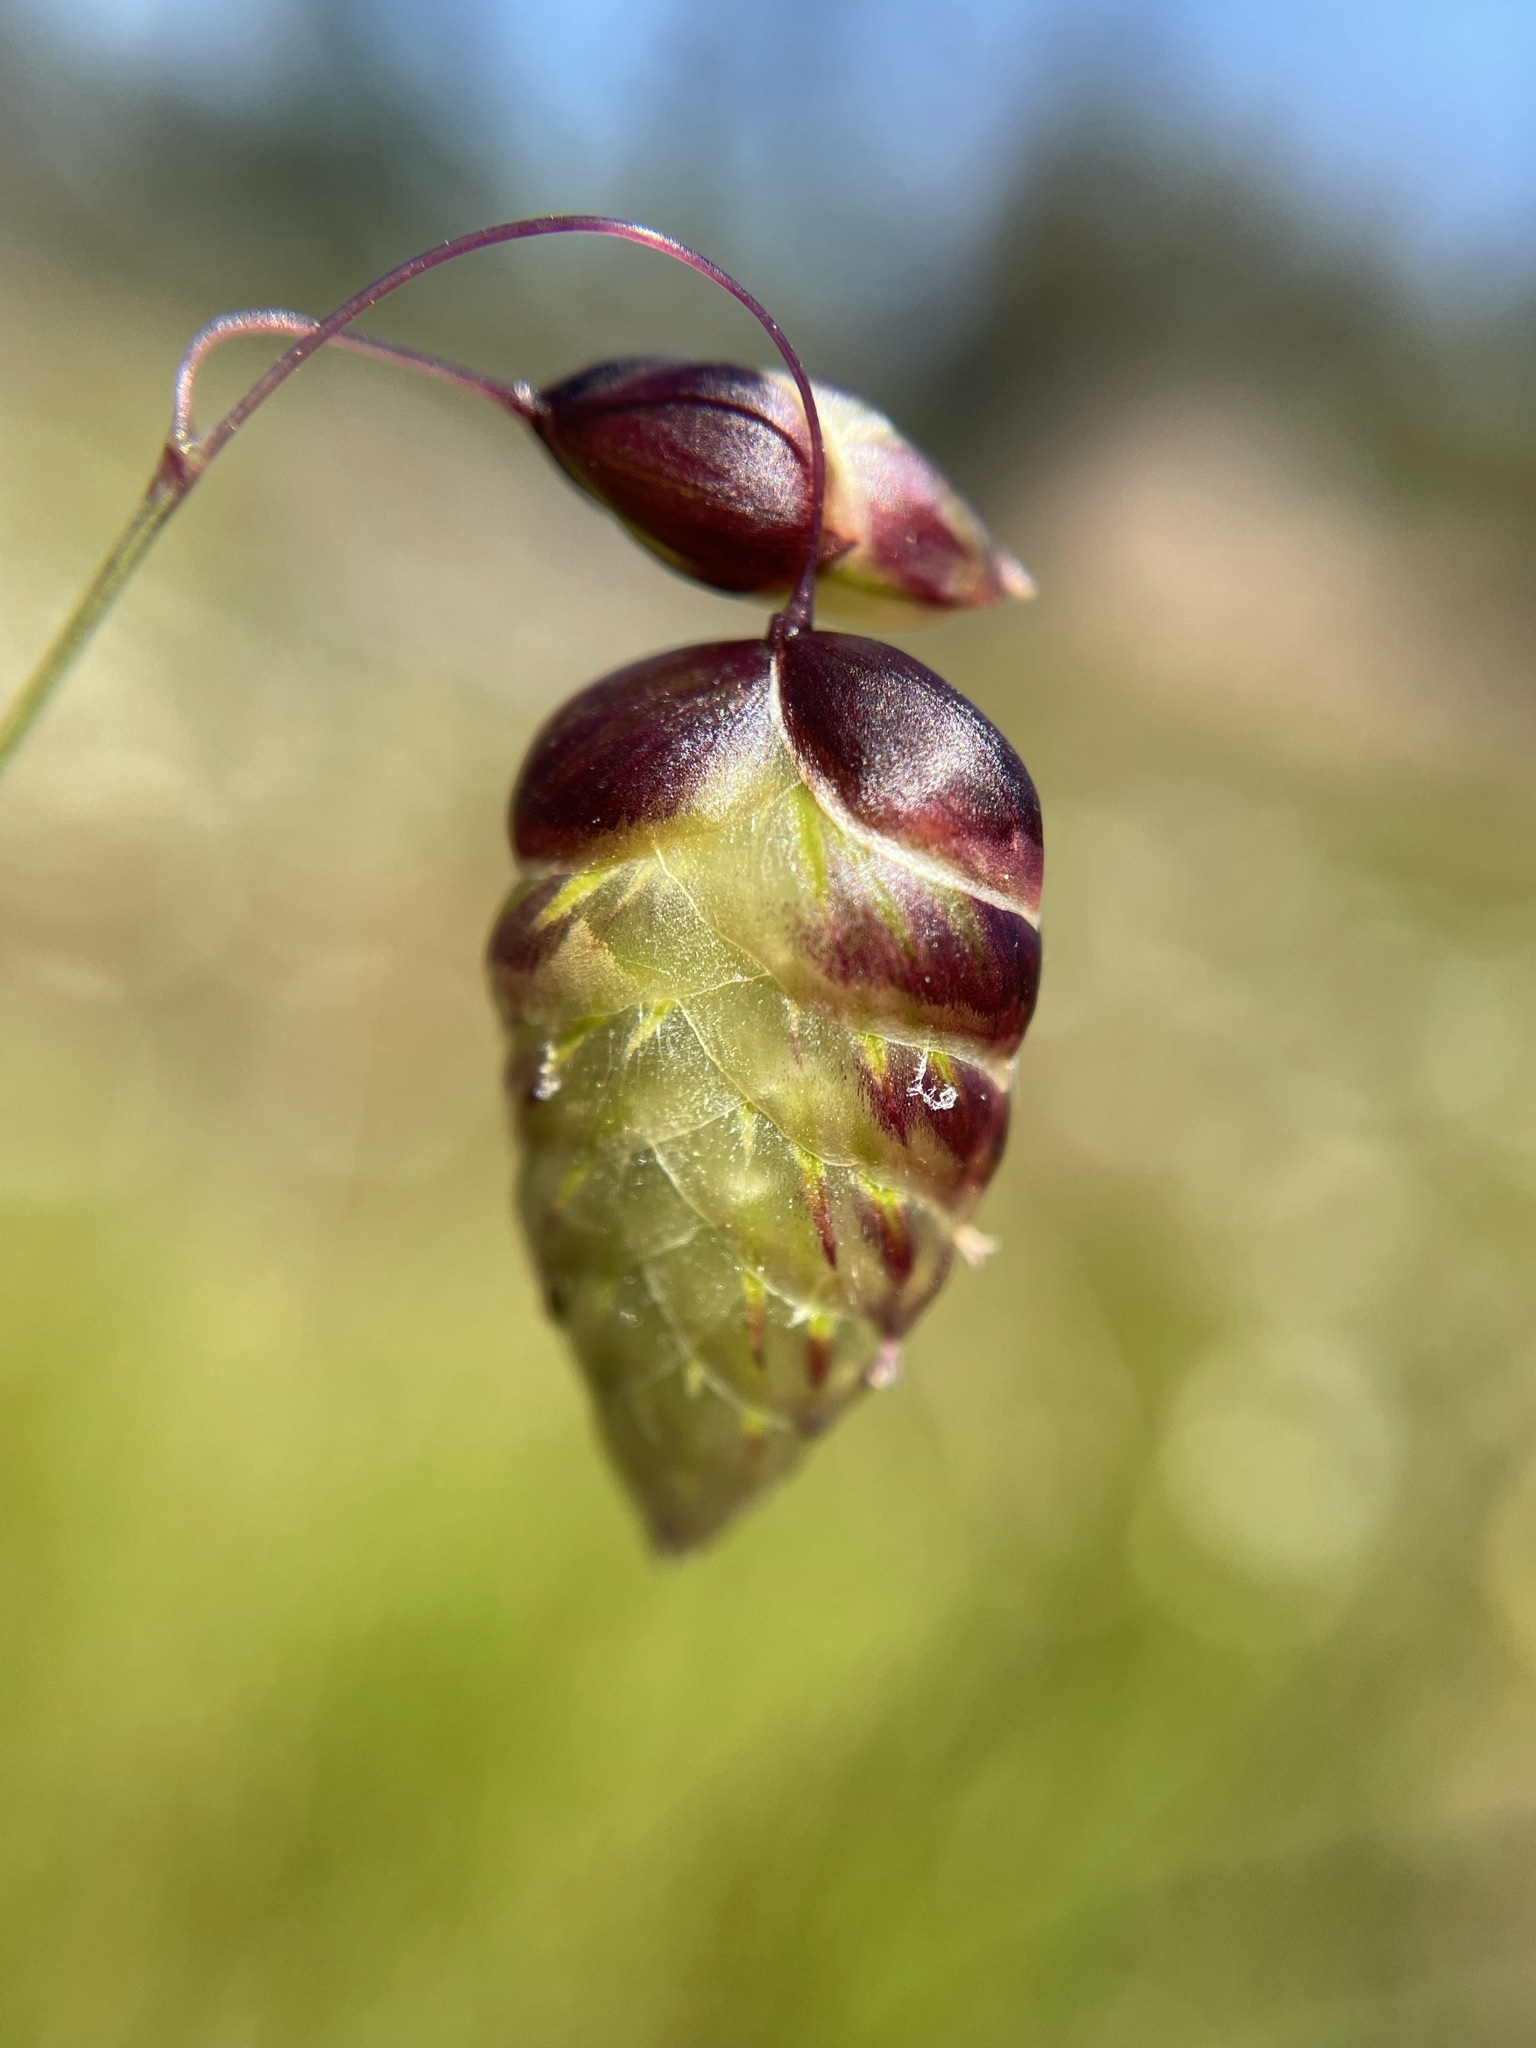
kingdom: Plantae
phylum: Tracheophyta
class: Liliopsida
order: Poales
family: Poaceae
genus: Briza
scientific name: Briza maxima
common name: Big quakinggrass
